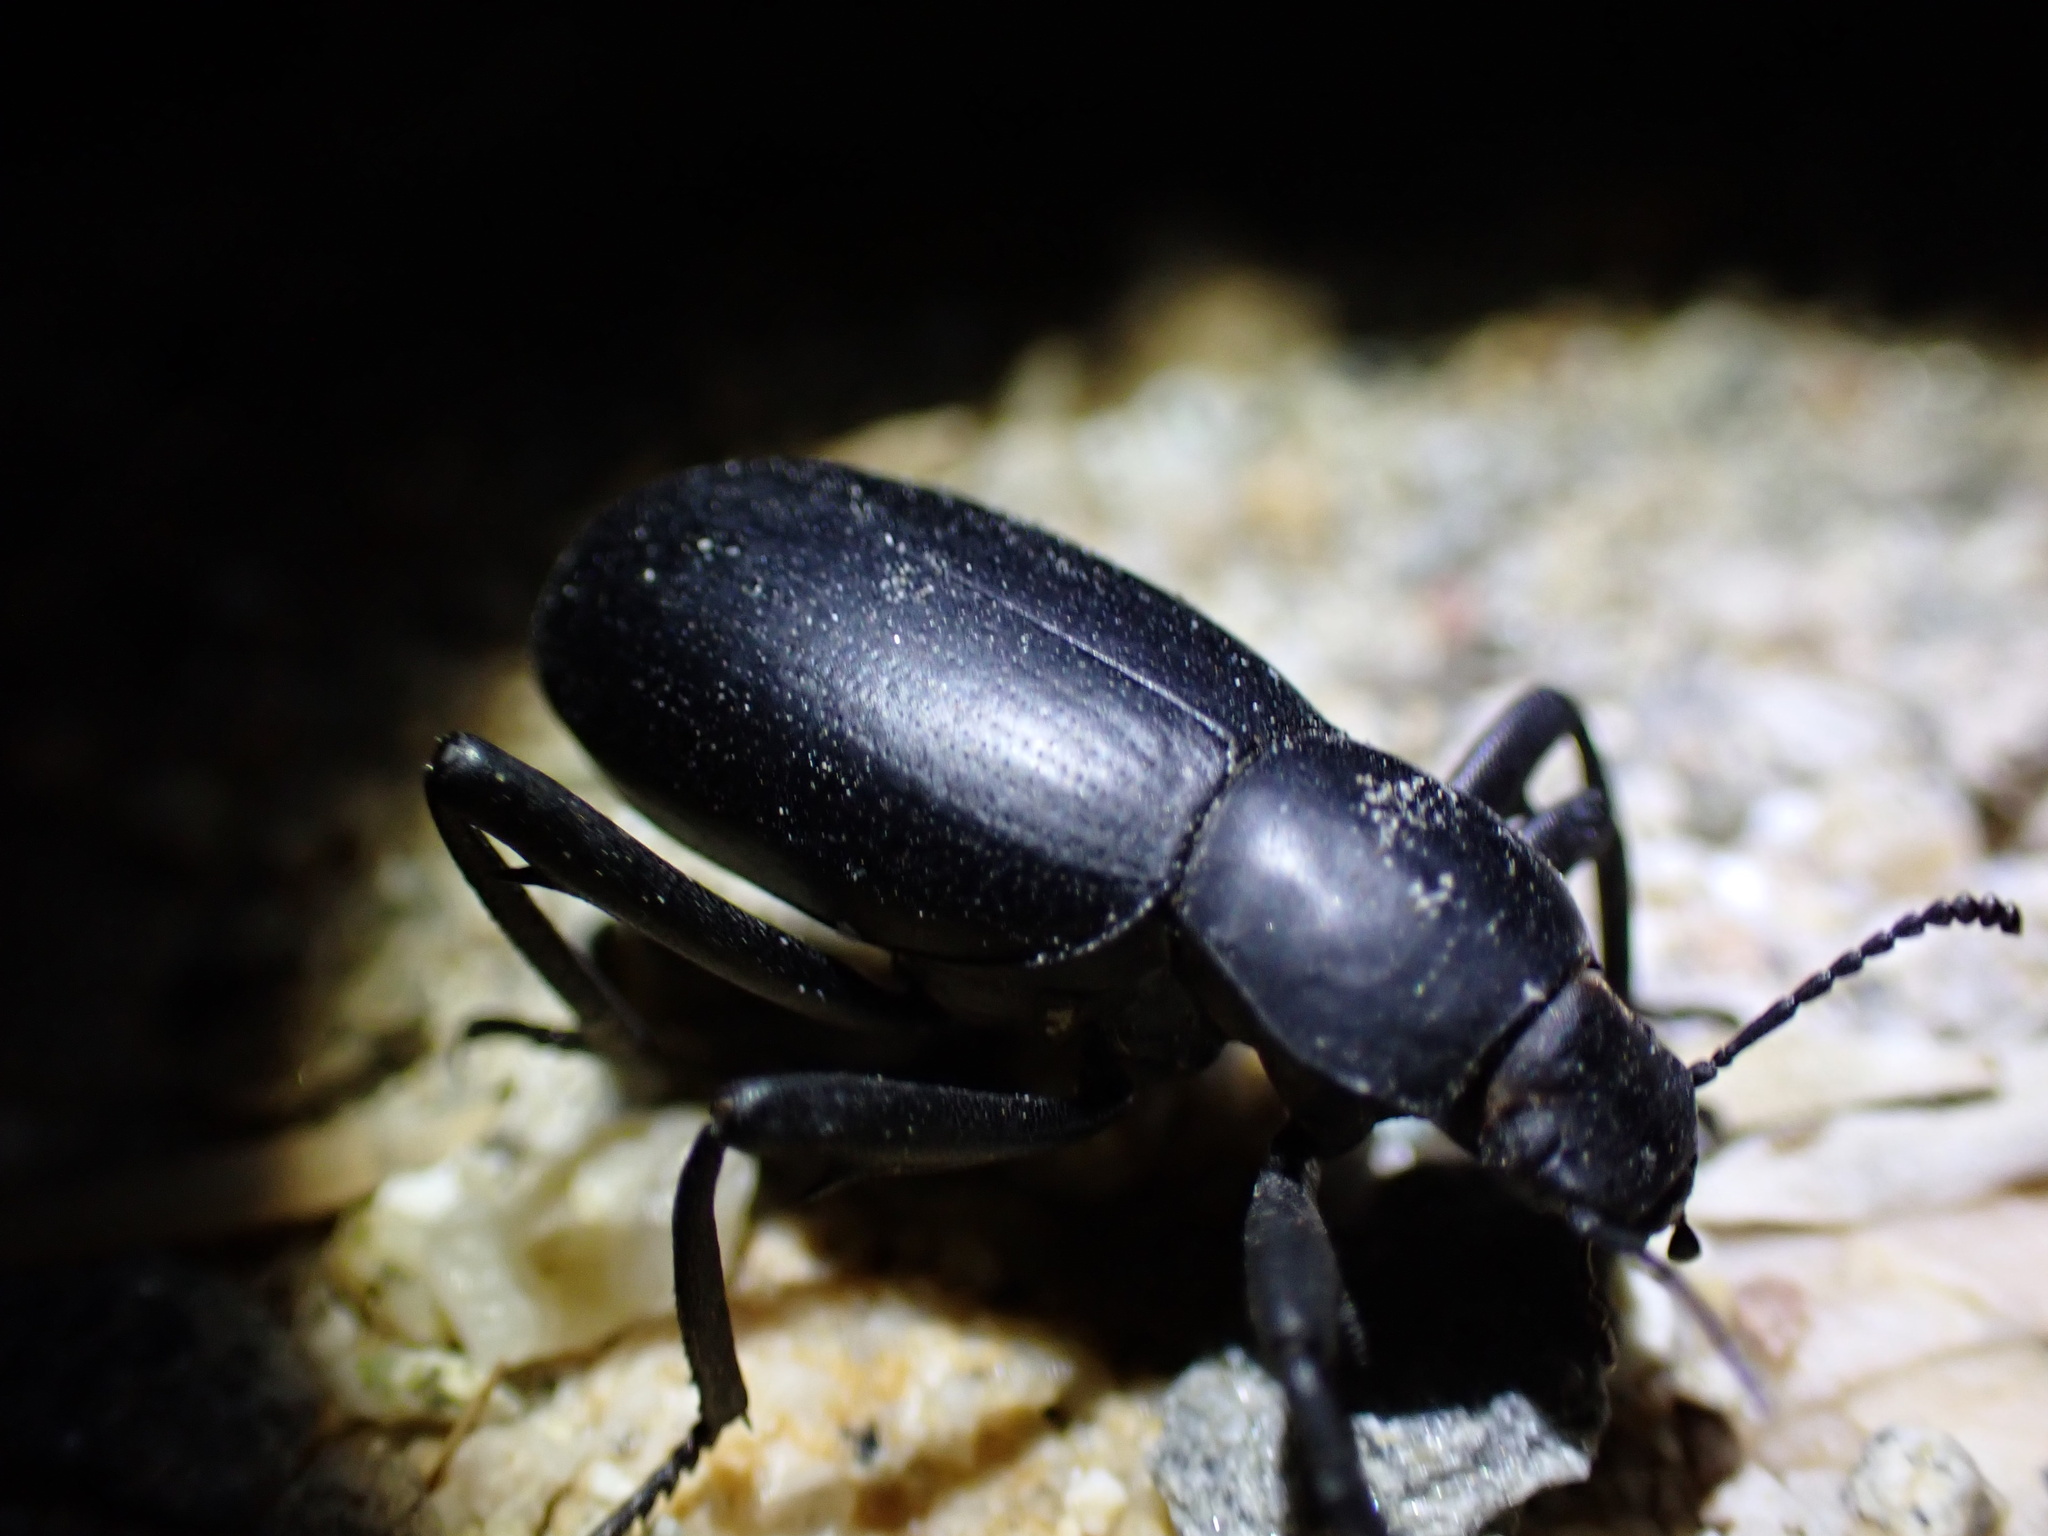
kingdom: Animalia
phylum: Arthropoda
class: Insecta
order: Coleoptera
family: Tenebrionidae
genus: Eleodes
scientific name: Eleodes armata
